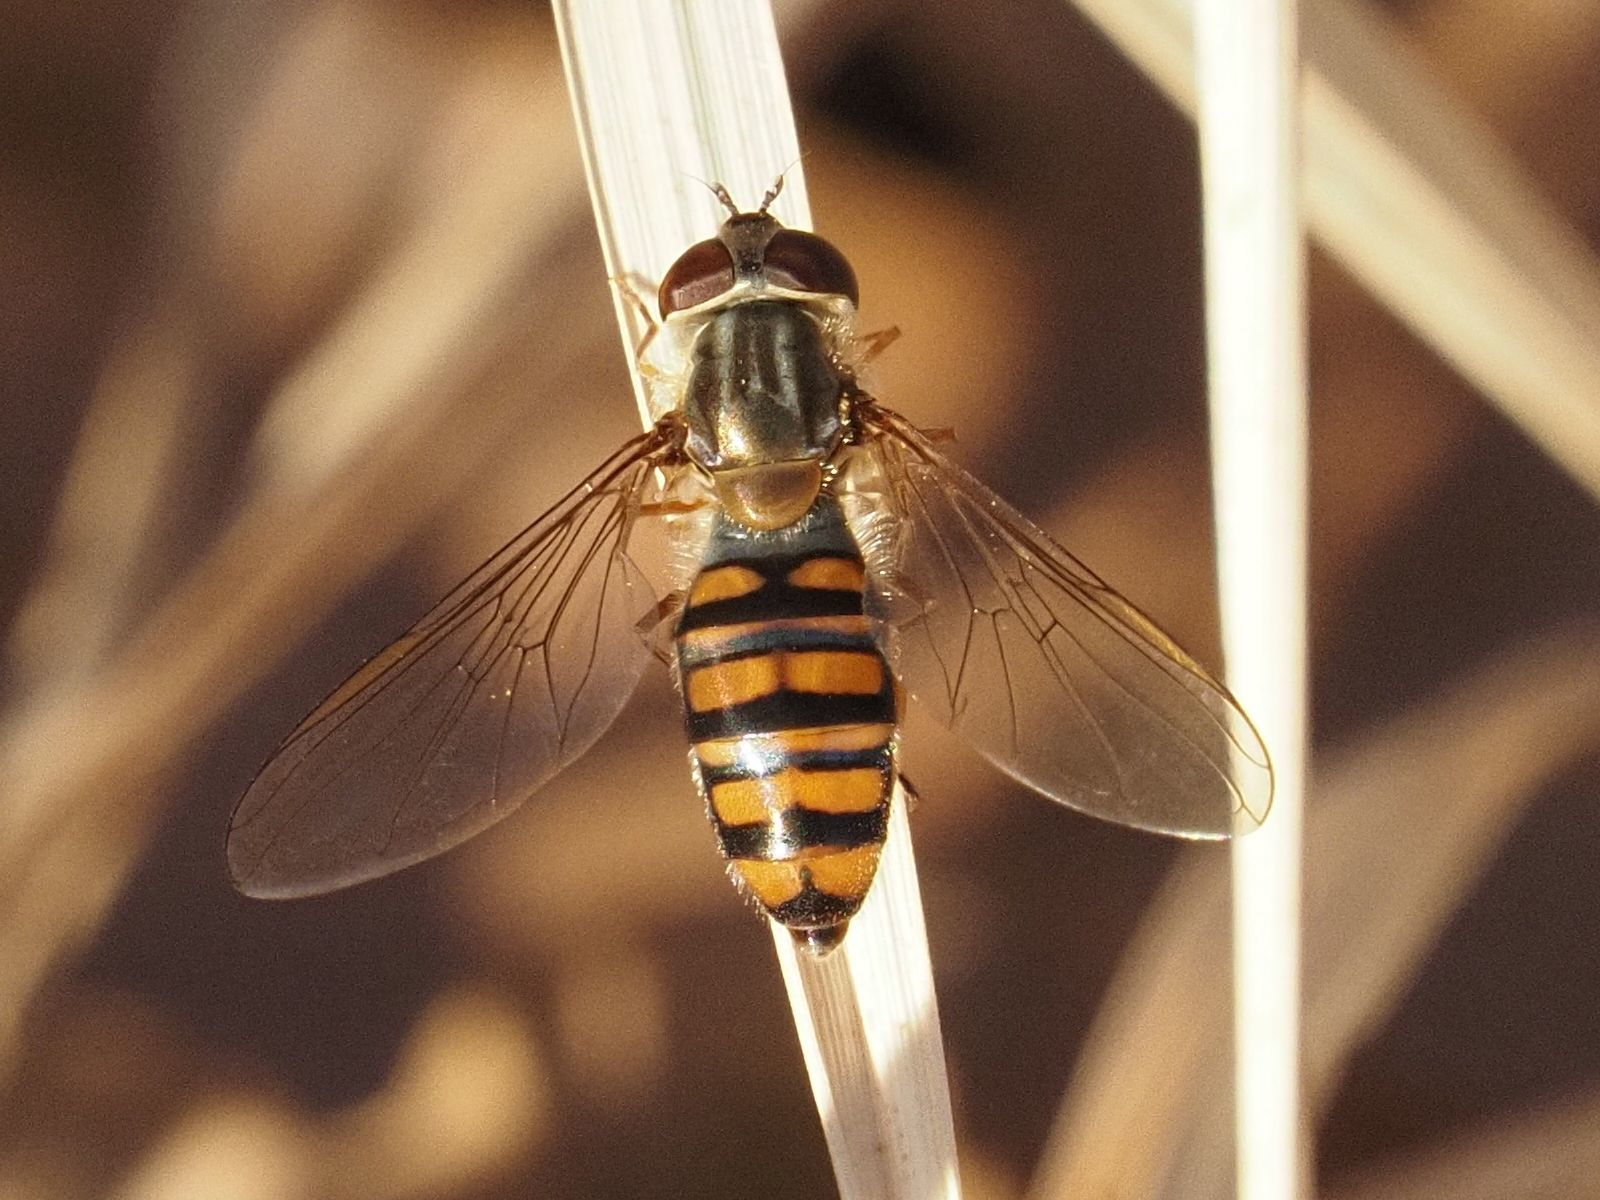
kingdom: Animalia
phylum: Arthropoda
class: Insecta
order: Diptera
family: Syrphidae
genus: Episyrphus
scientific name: Episyrphus balteatus
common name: Marmalade hoverfly
